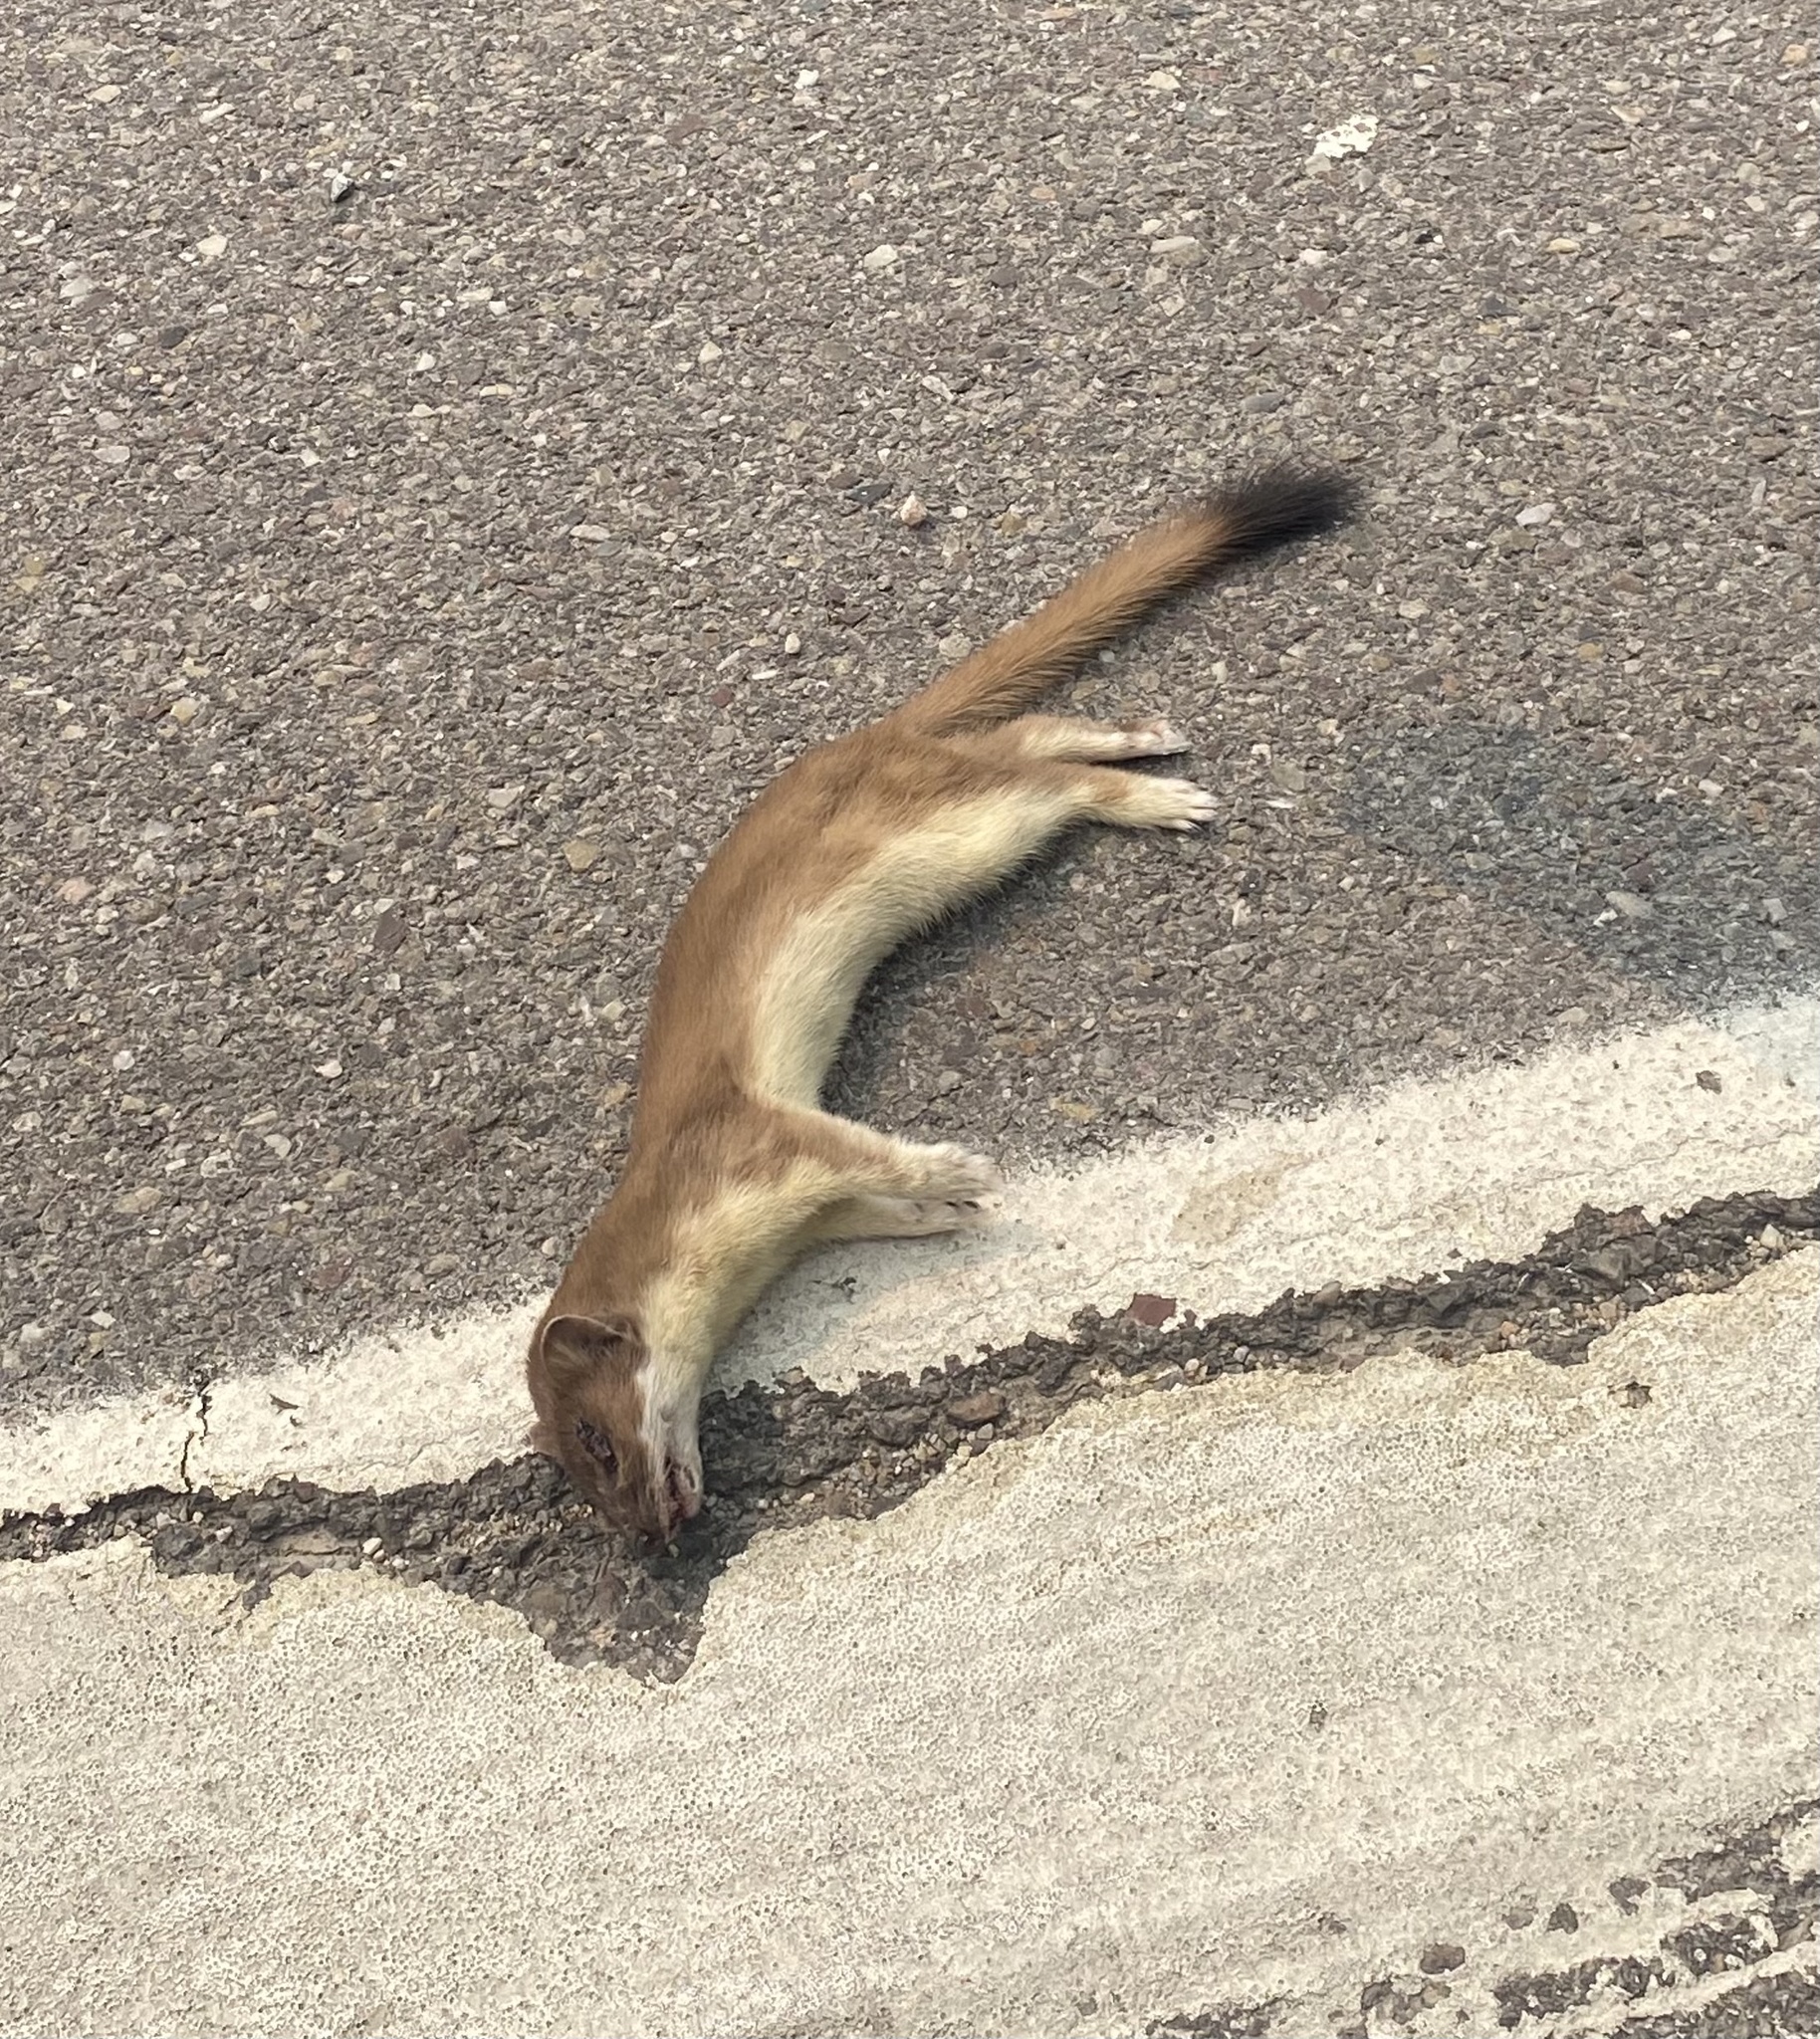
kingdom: Animalia
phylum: Chordata
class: Mammalia
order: Carnivora
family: Mustelidae
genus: Mustela
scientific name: Mustela
